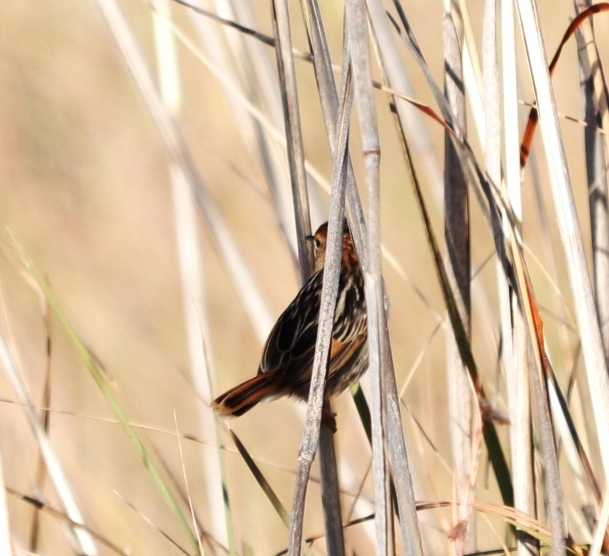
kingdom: Animalia
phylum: Chordata
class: Aves
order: Passeriformes
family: Cisticolidae
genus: Cisticola
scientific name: Cisticola tinniens
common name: Levaillant's cisticola
